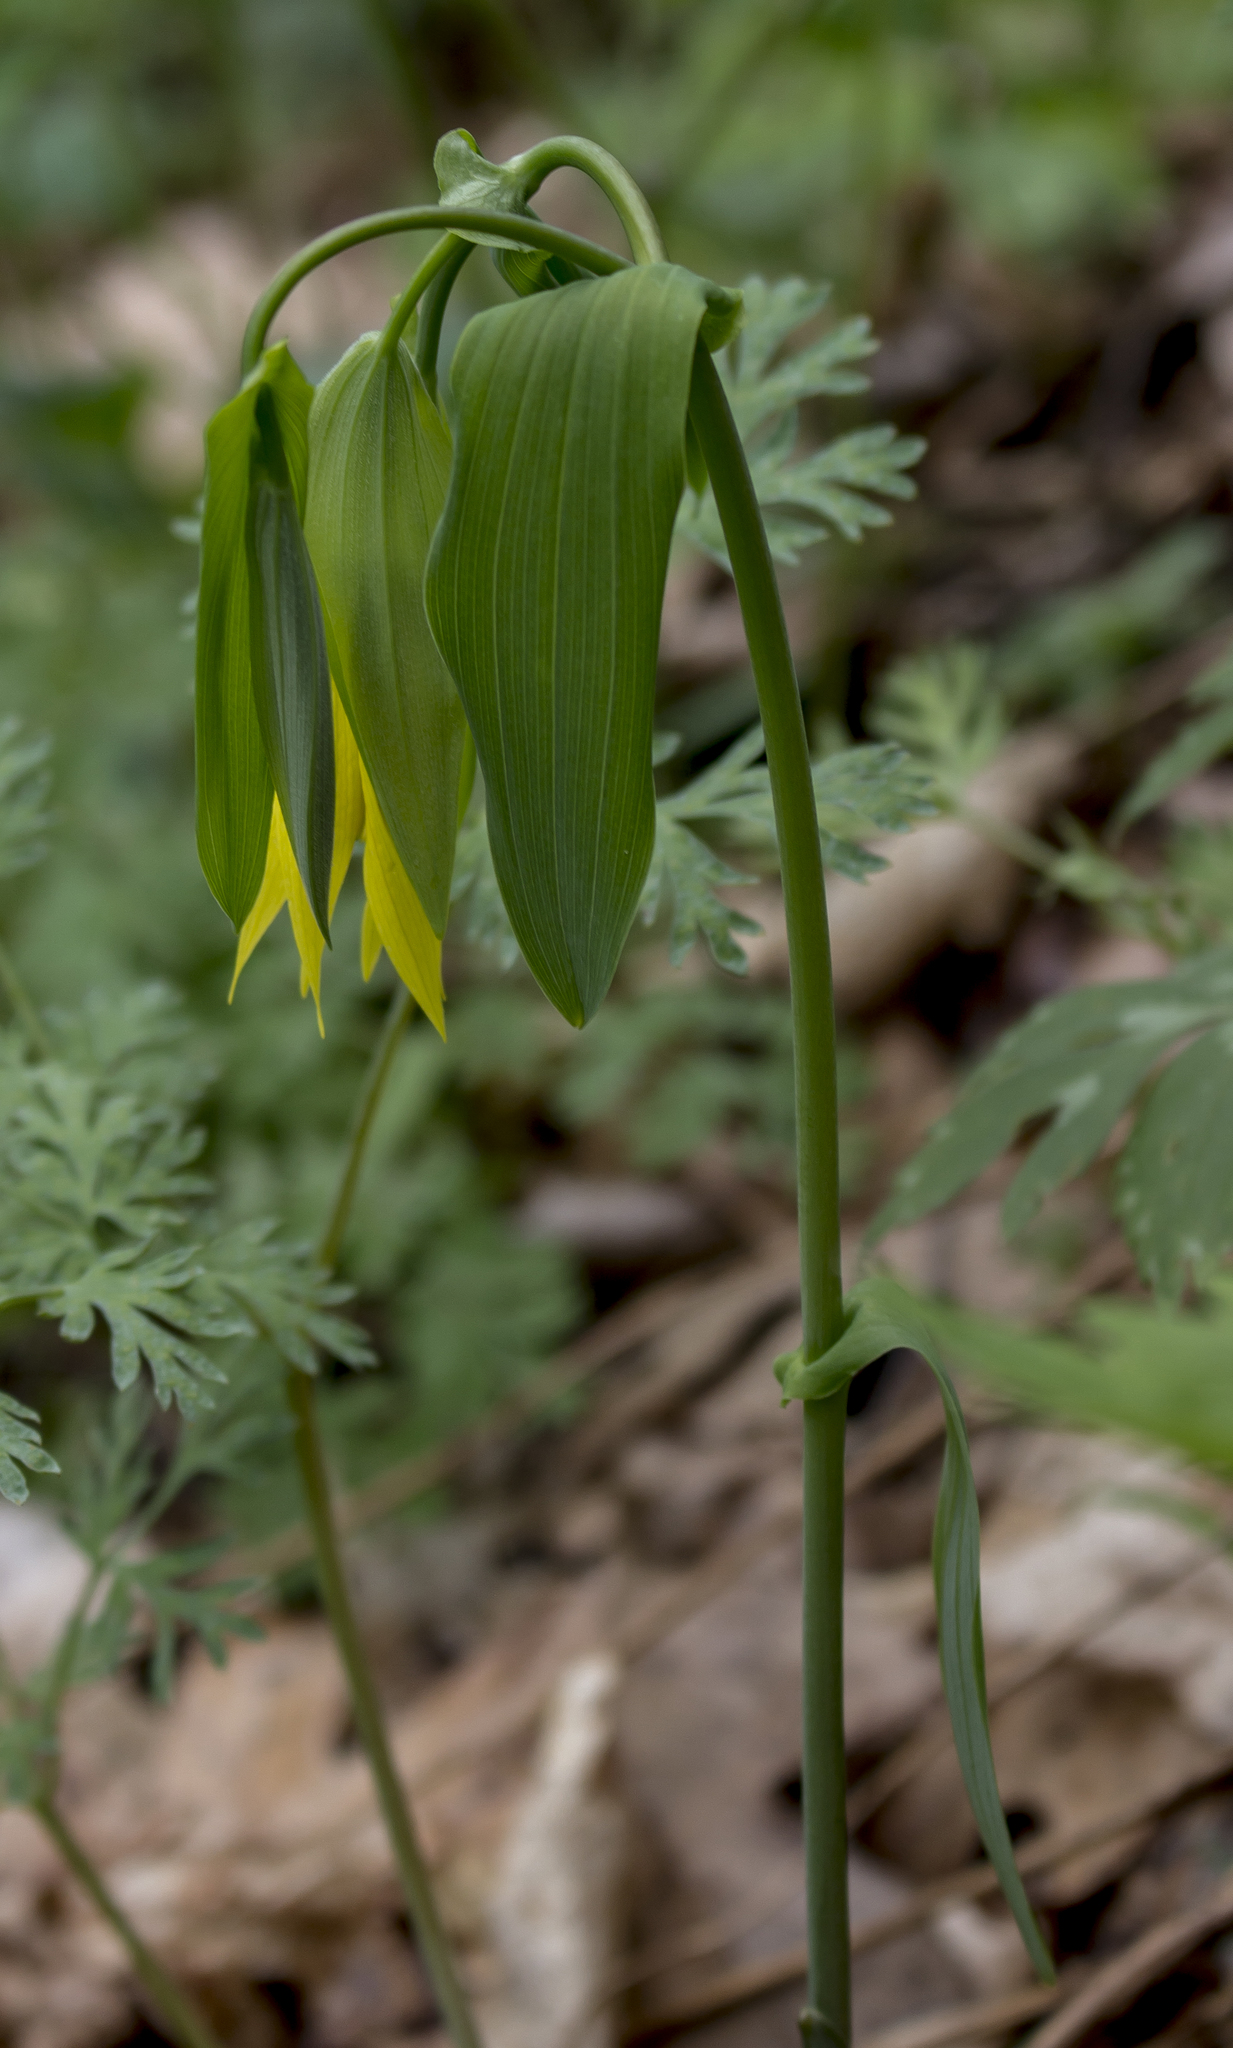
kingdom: Plantae
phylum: Tracheophyta
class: Liliopsida
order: Liliales
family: Colchicaceae
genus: Uvularia
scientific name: Uvularia grandiflora
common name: Bellwort
